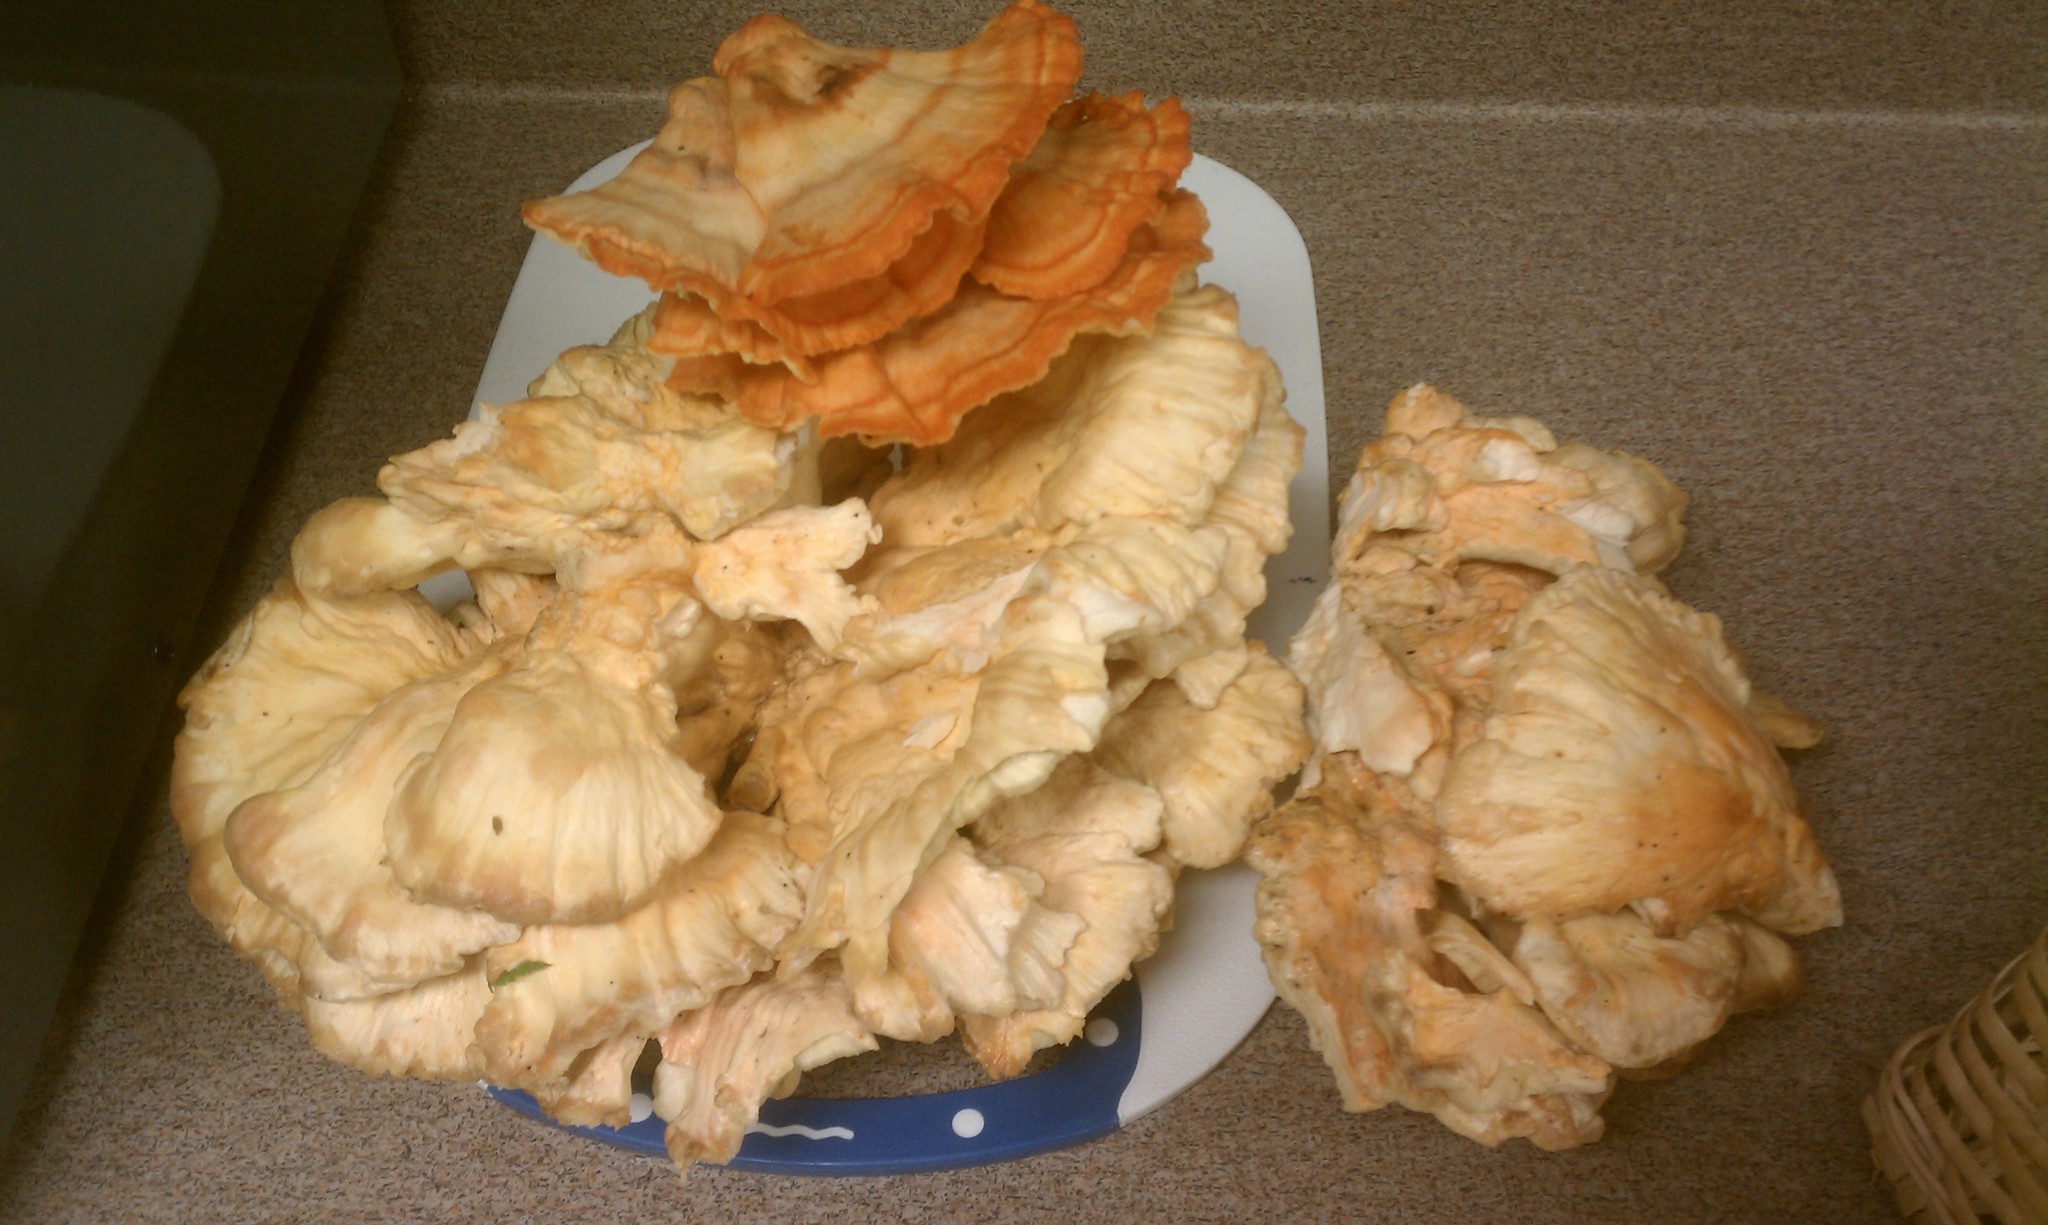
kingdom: Fungi
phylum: Basidiomycota
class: Agaricomycetes
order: Polyporales
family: Laetiporaceae
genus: Laetiporus
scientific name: Laetiporus sulphureus
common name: Chicken of the woods
